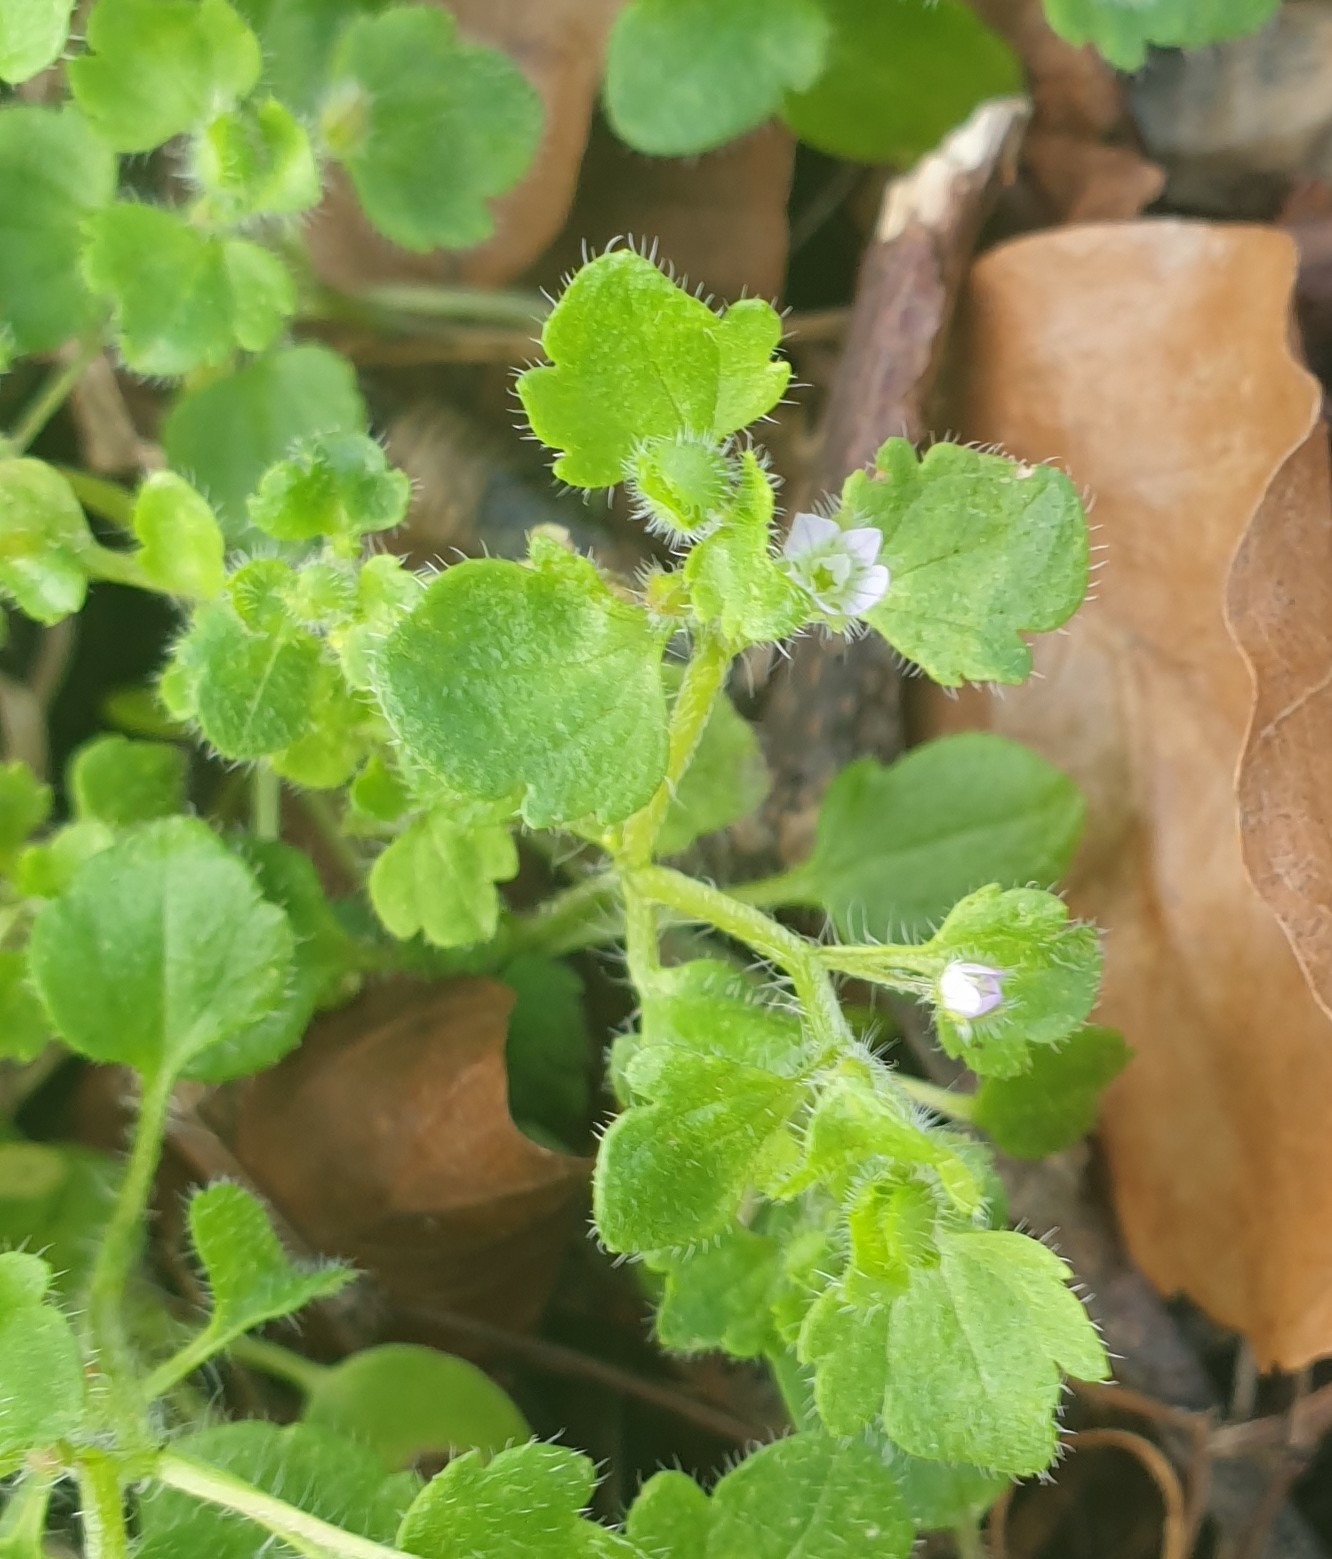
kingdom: Plantae
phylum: Tracheophyta
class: Magnoliopsida
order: Lamiales
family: Plantaginaceae
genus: Veronica
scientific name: Veronica sublobata
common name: False ivy-leaved speedwell
